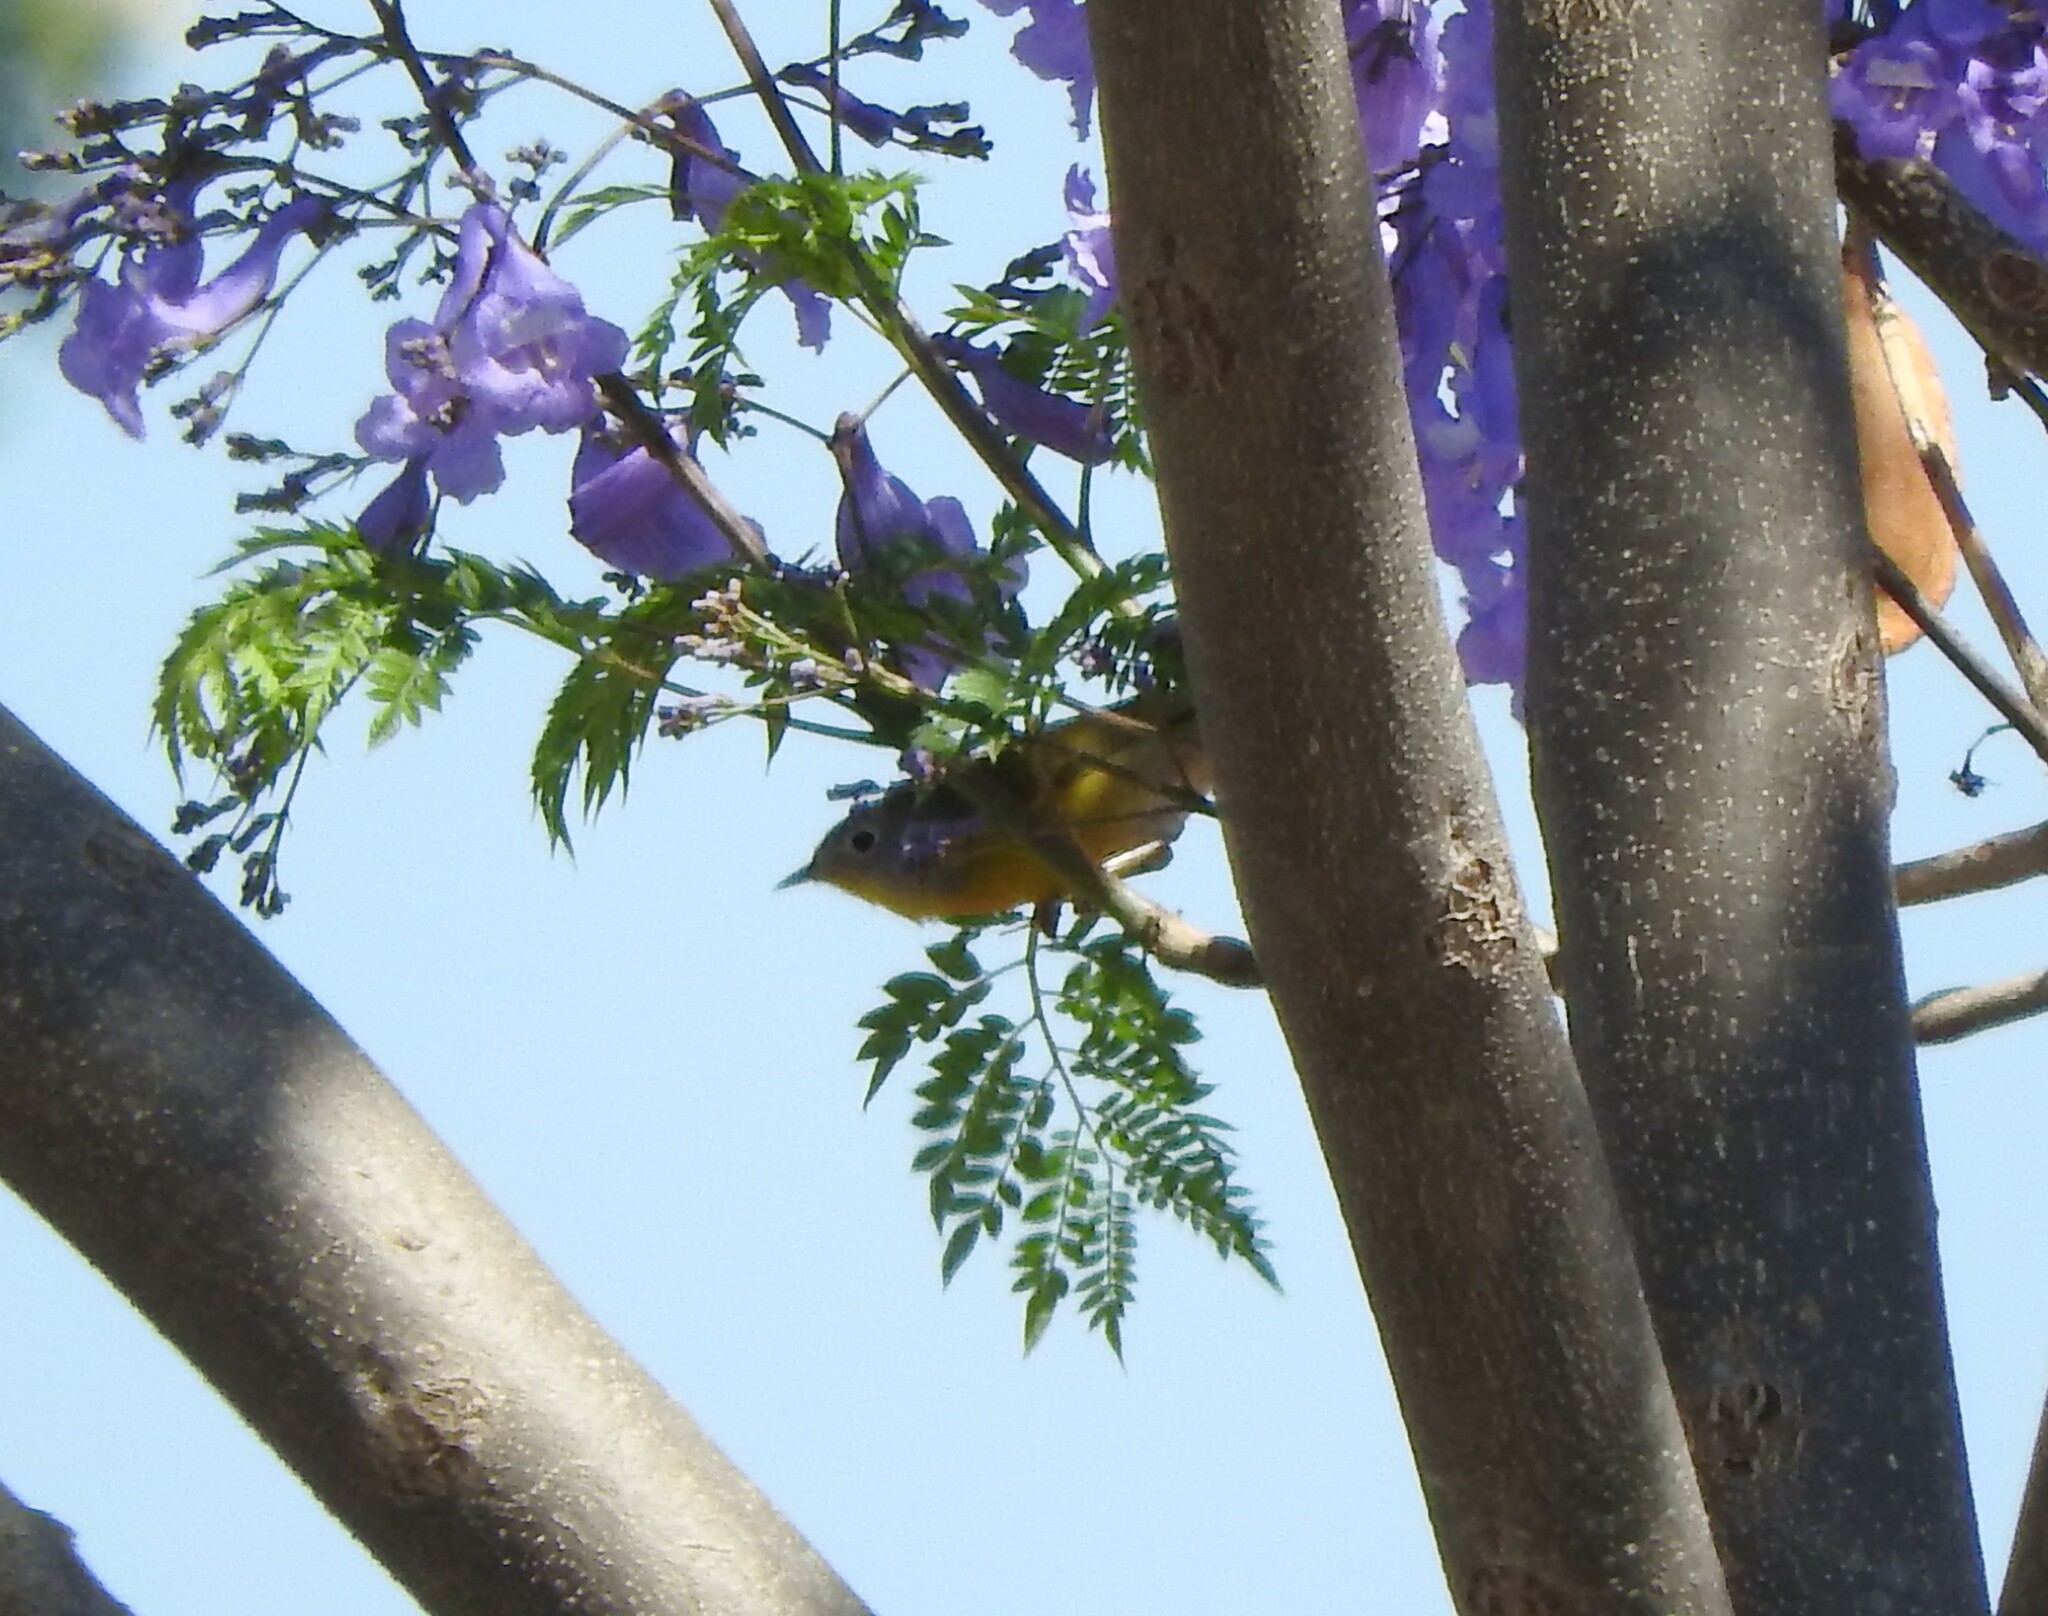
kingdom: Animalia
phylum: Chordata
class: Aves
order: Passeriformes
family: Parulidae
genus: Leiothlypis
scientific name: Leiothlypis ruficapilla
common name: Nashville warbler
